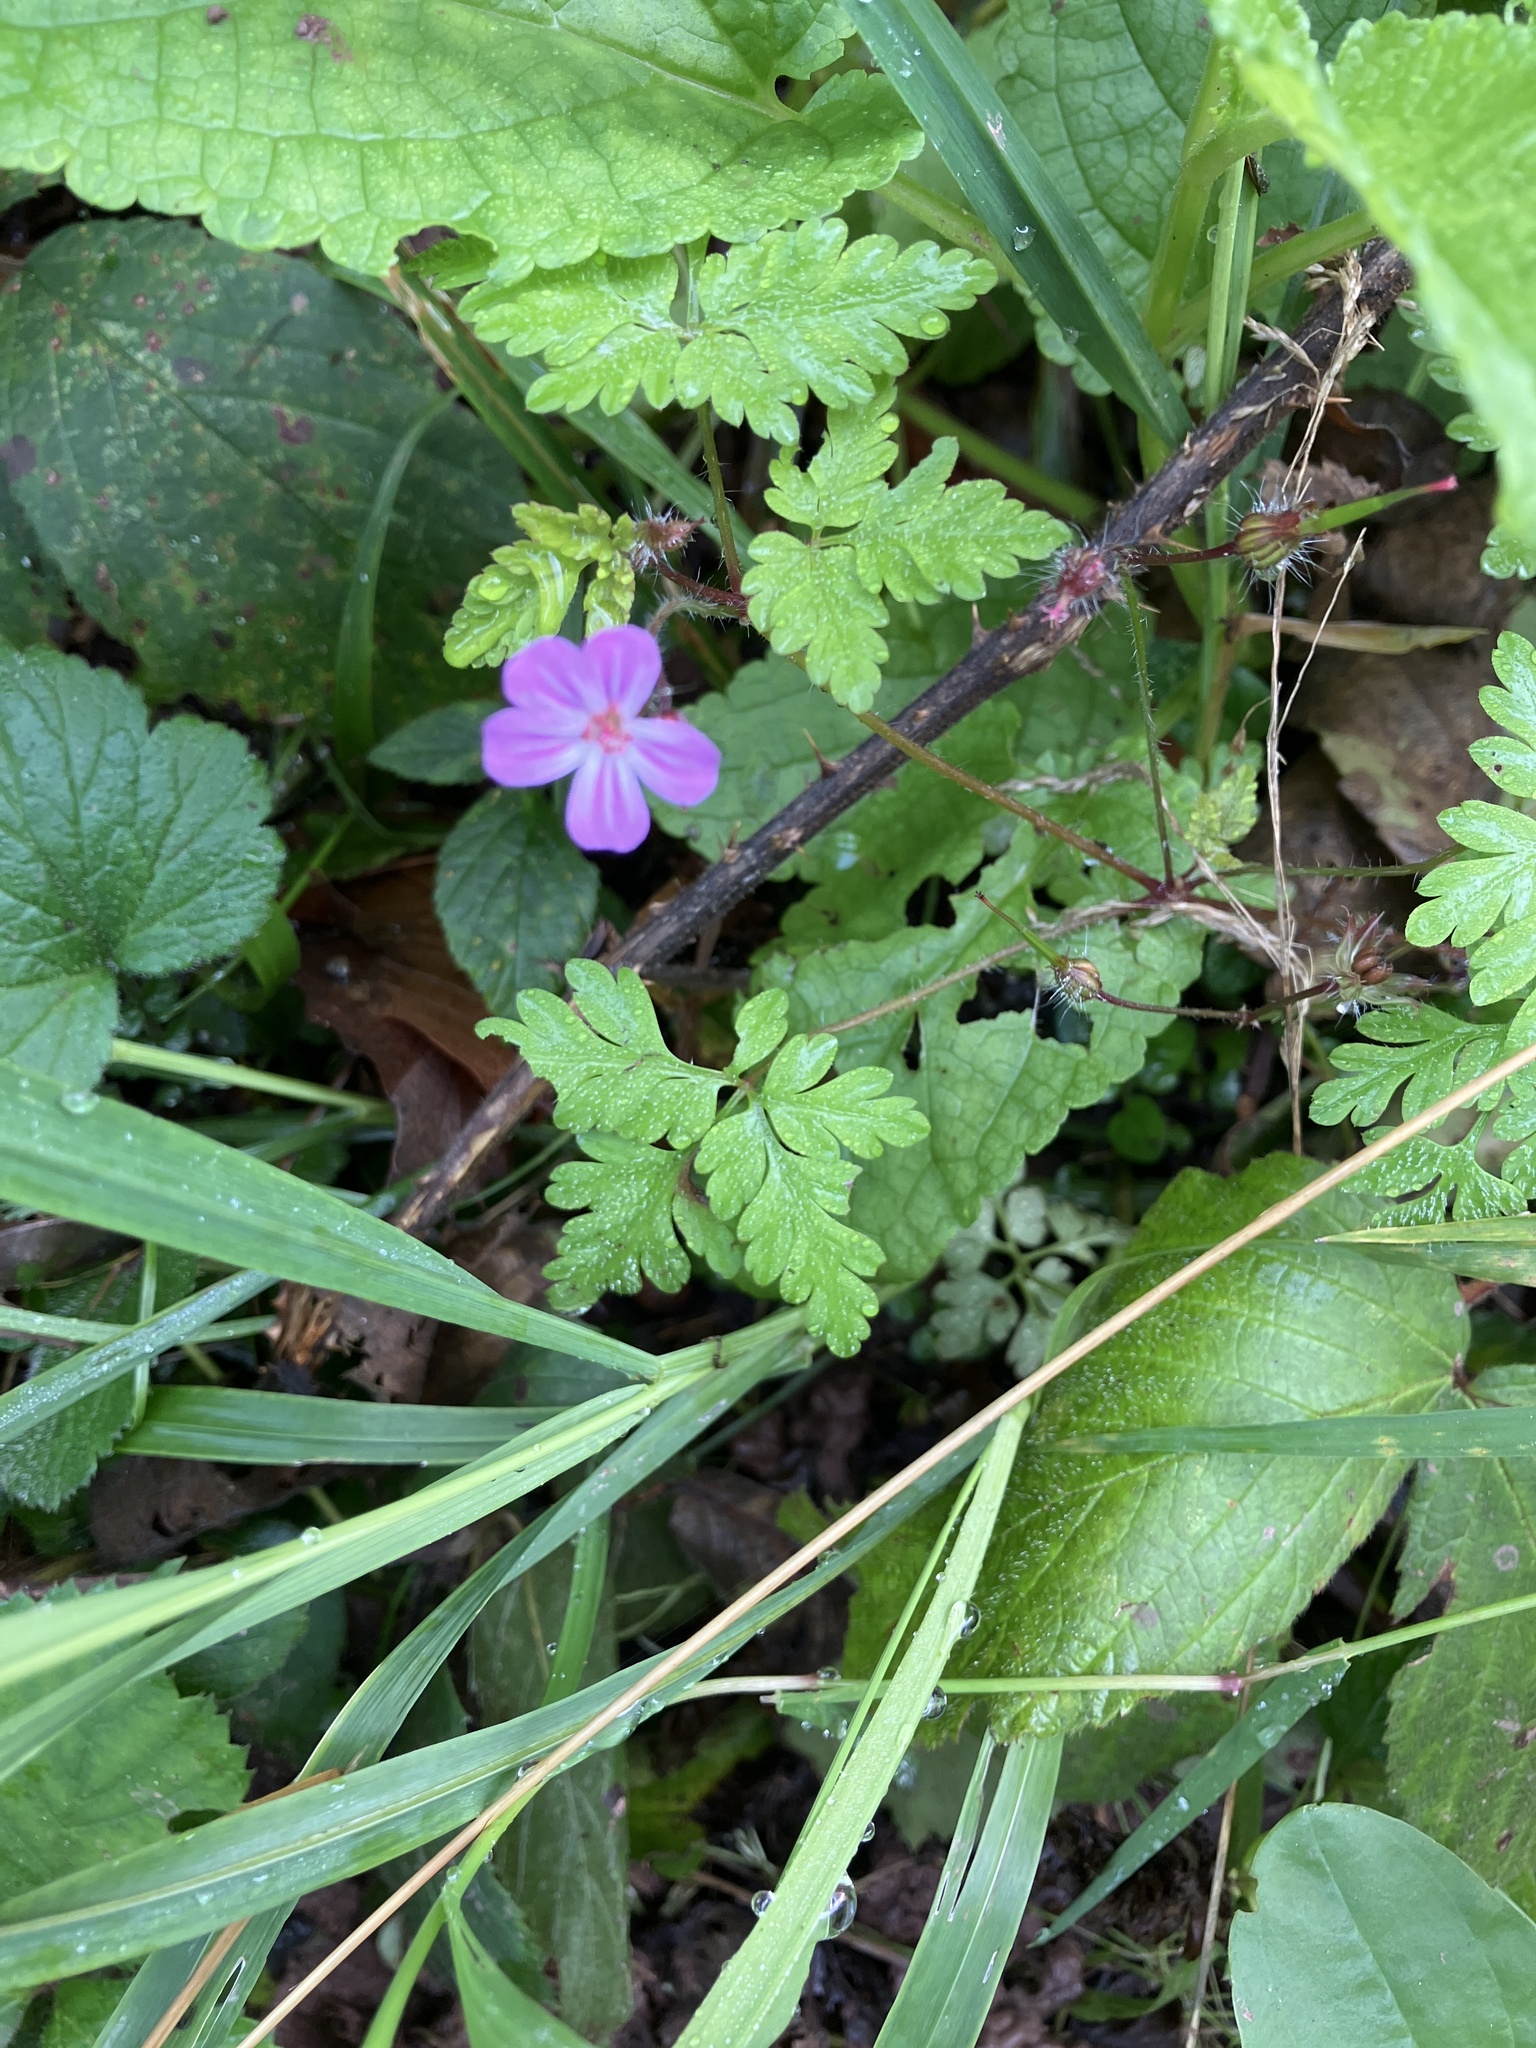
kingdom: Plantae
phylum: Tracheophyta
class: Magnoliopsida
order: Geraniales
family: Geraniaceae
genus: Geranium
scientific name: Geranium robertianum
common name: Herb-robert
